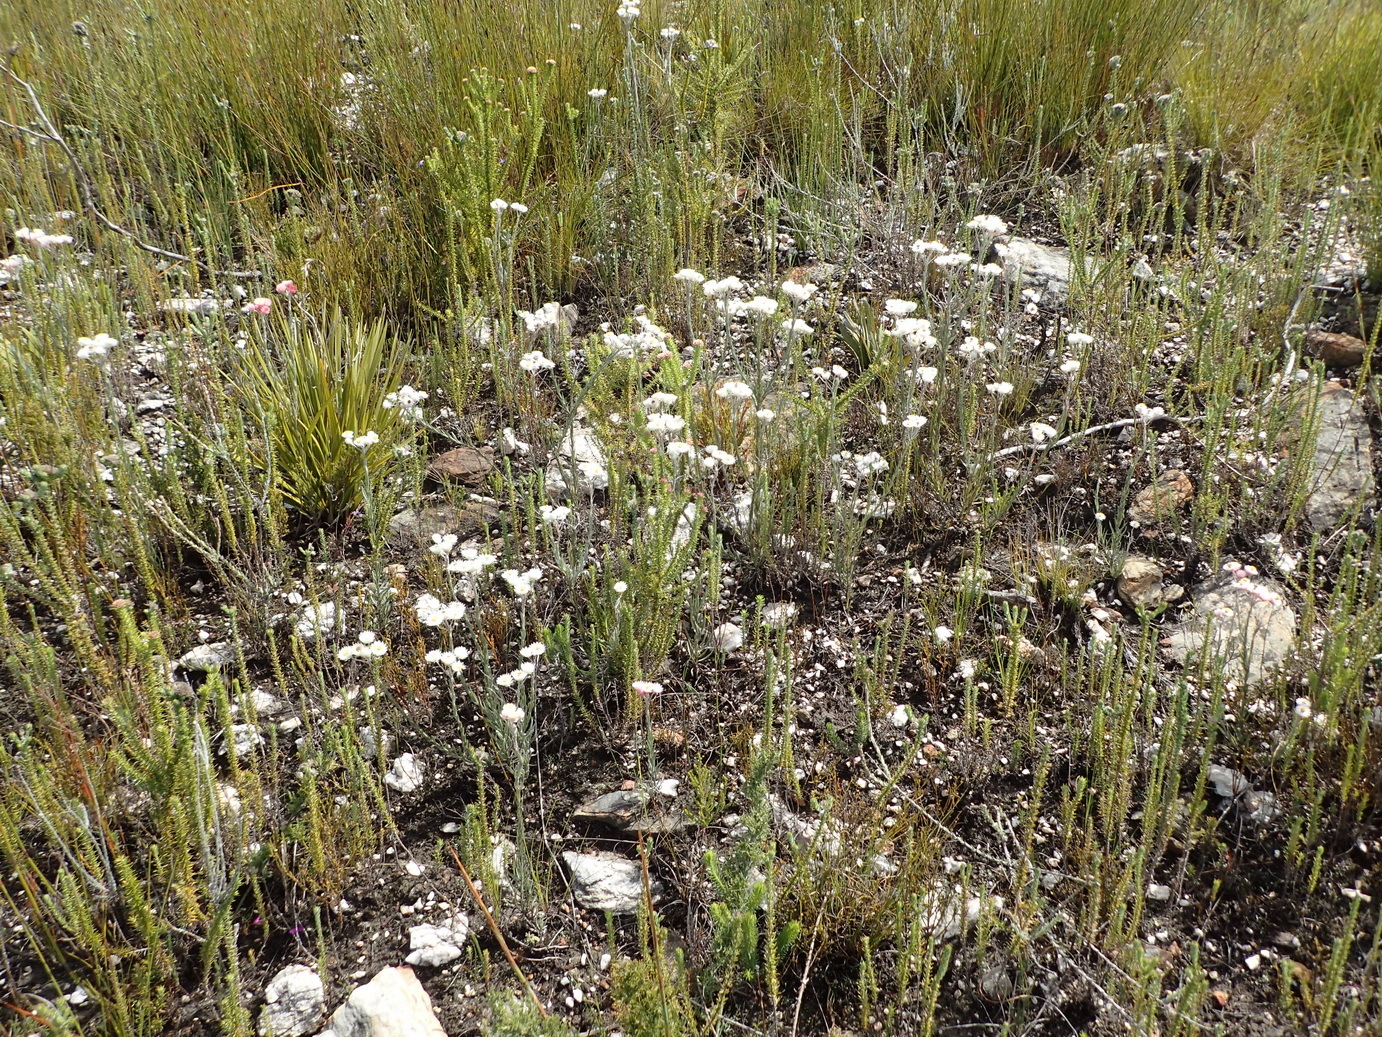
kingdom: Plantae
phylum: Tracheophyta
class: Magnoliopsida
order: Asterales
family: Asteraceae
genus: Achyranthemum
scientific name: Achyranthemum paniculatum
